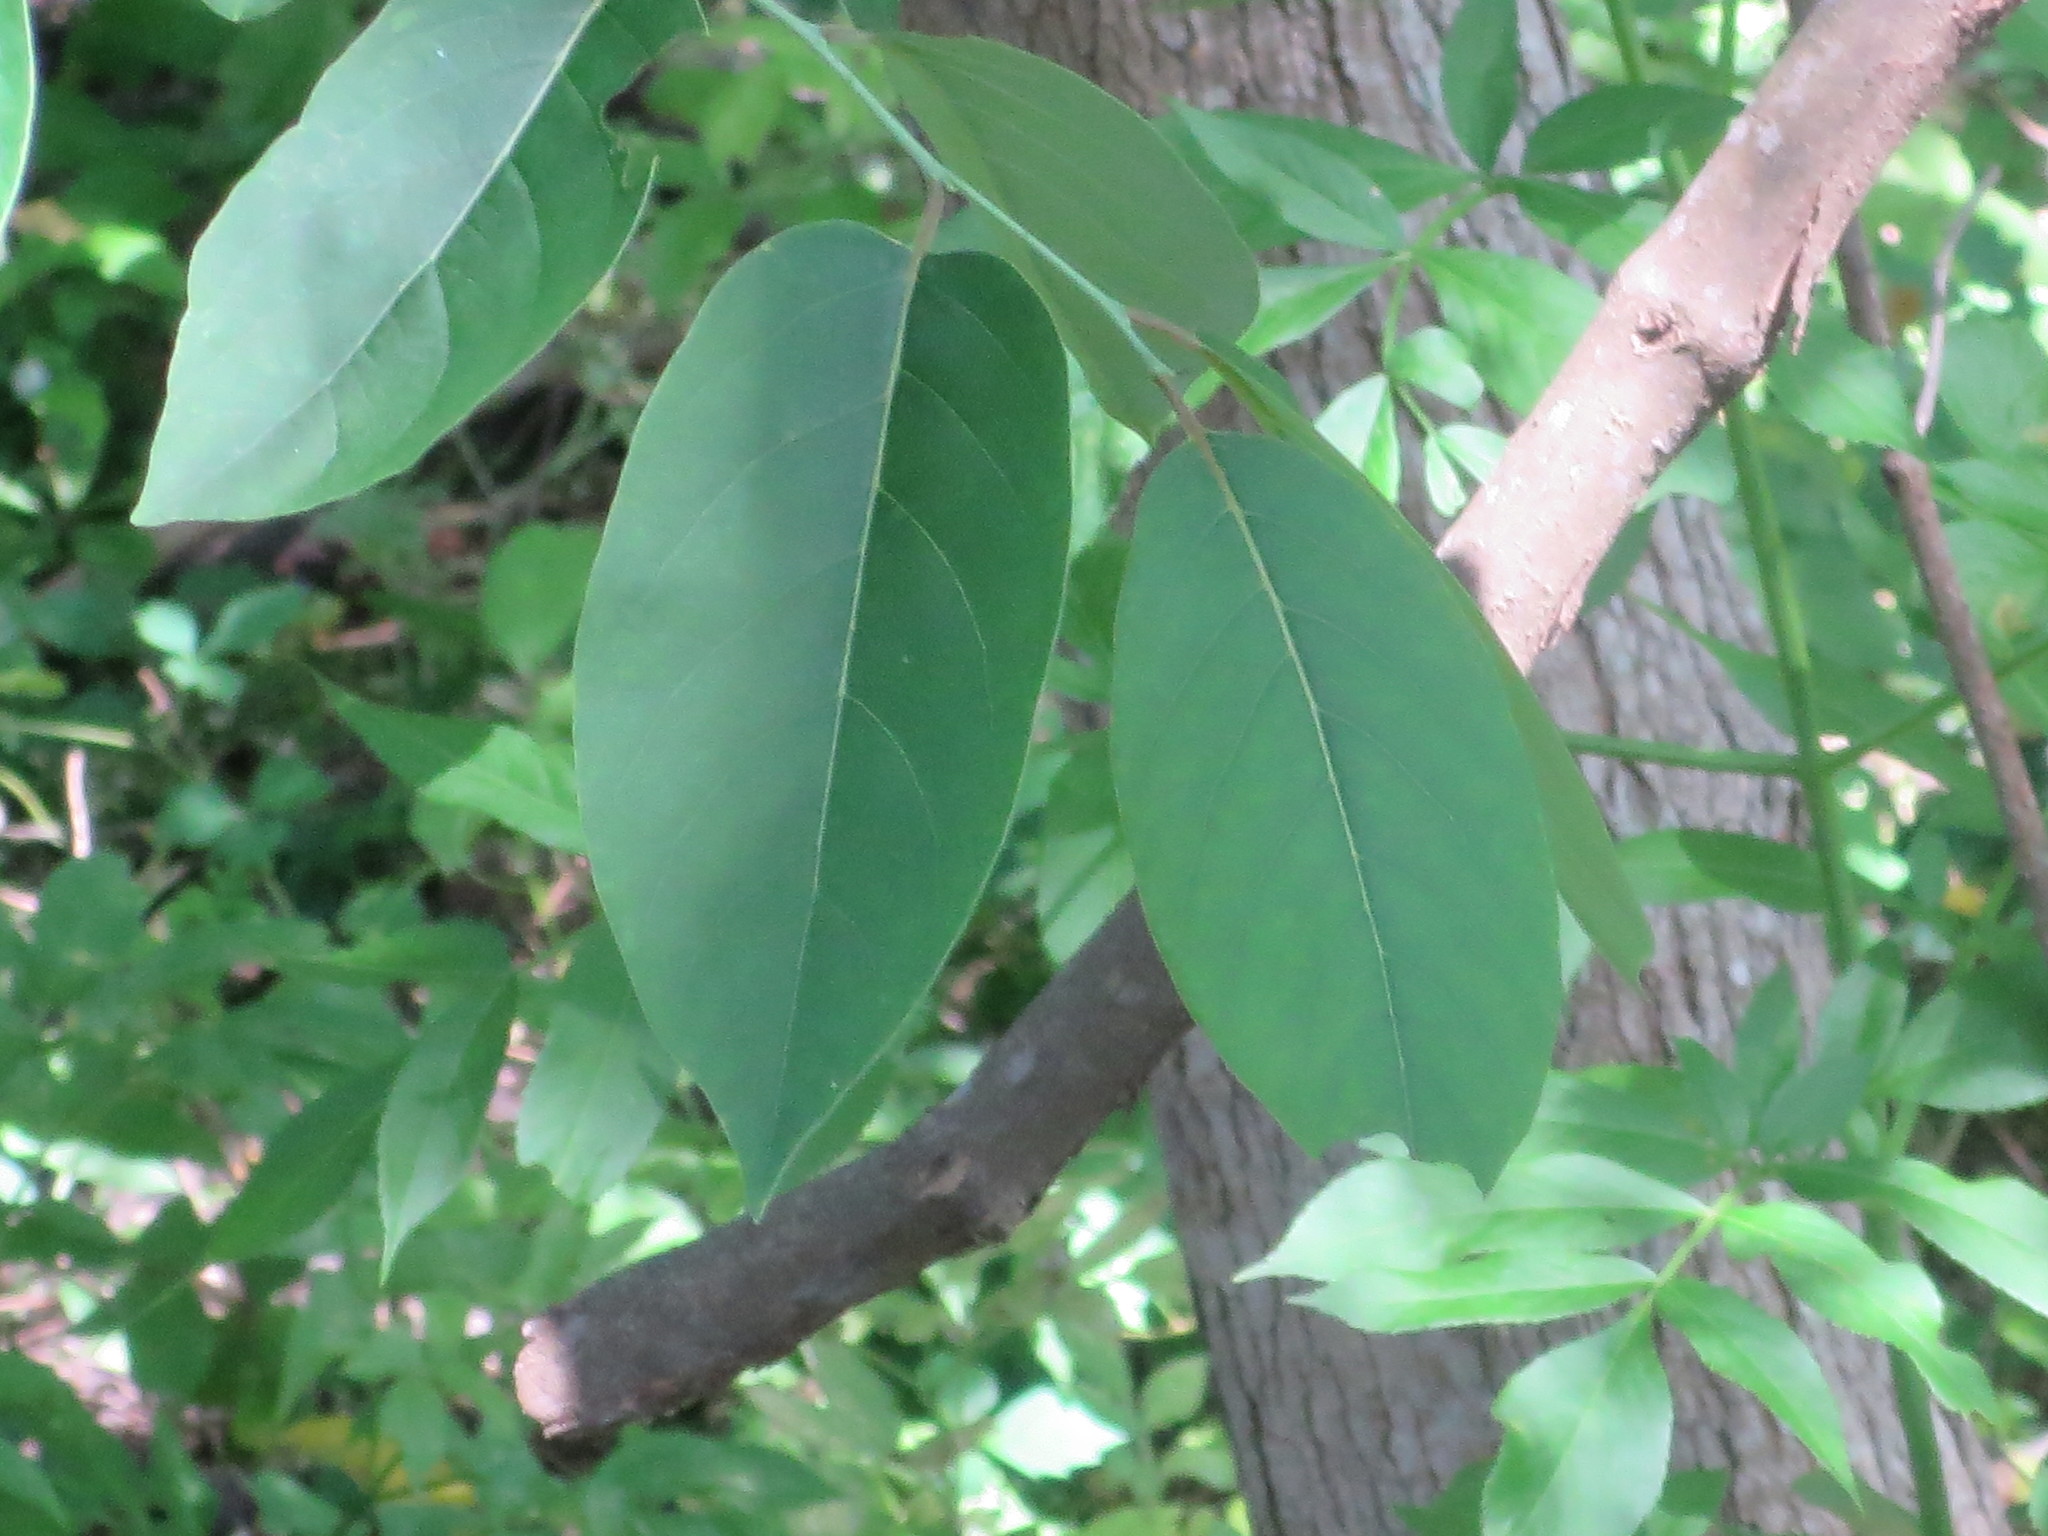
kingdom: Plantae
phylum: Tracheophyta
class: Magnoliopsida
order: Ericales
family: Ebenaceae
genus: Diospyros
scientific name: Diospyros virginiana
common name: Persimmon
